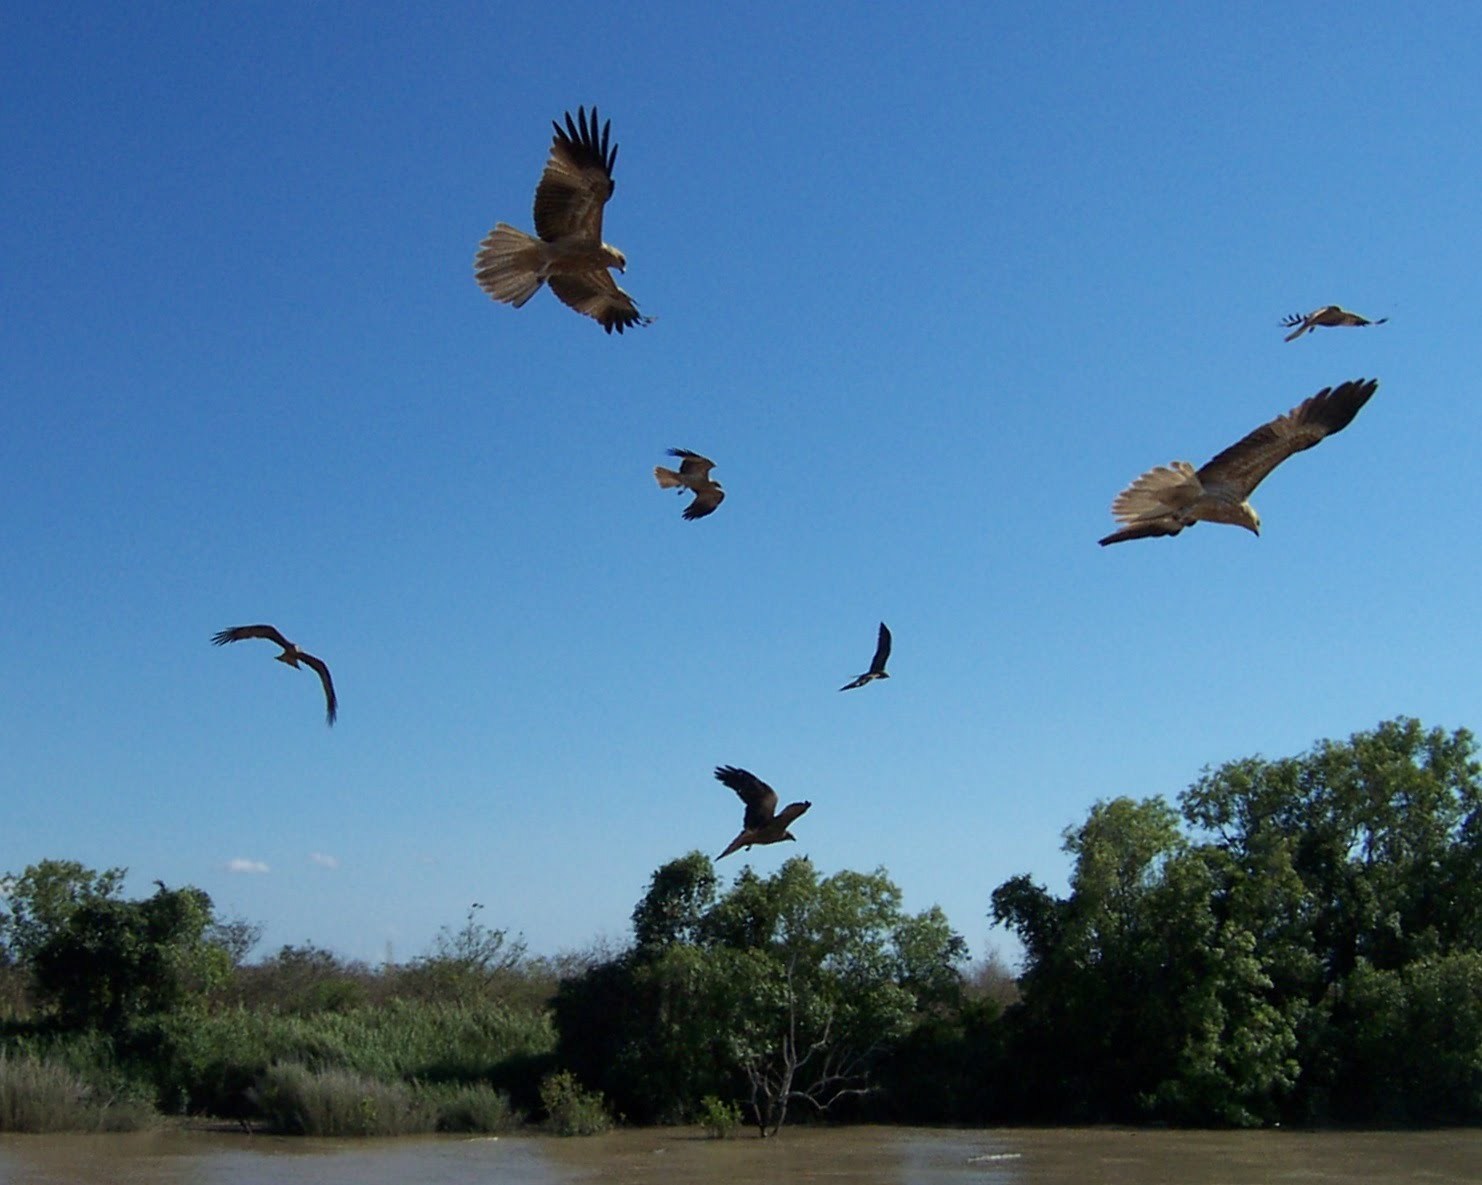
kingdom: Animalia
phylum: Chordata
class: Aves
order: Accipitriformes
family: Accipitridae
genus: Haliastur
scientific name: Haliastur sphenurus
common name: Whistling kite
